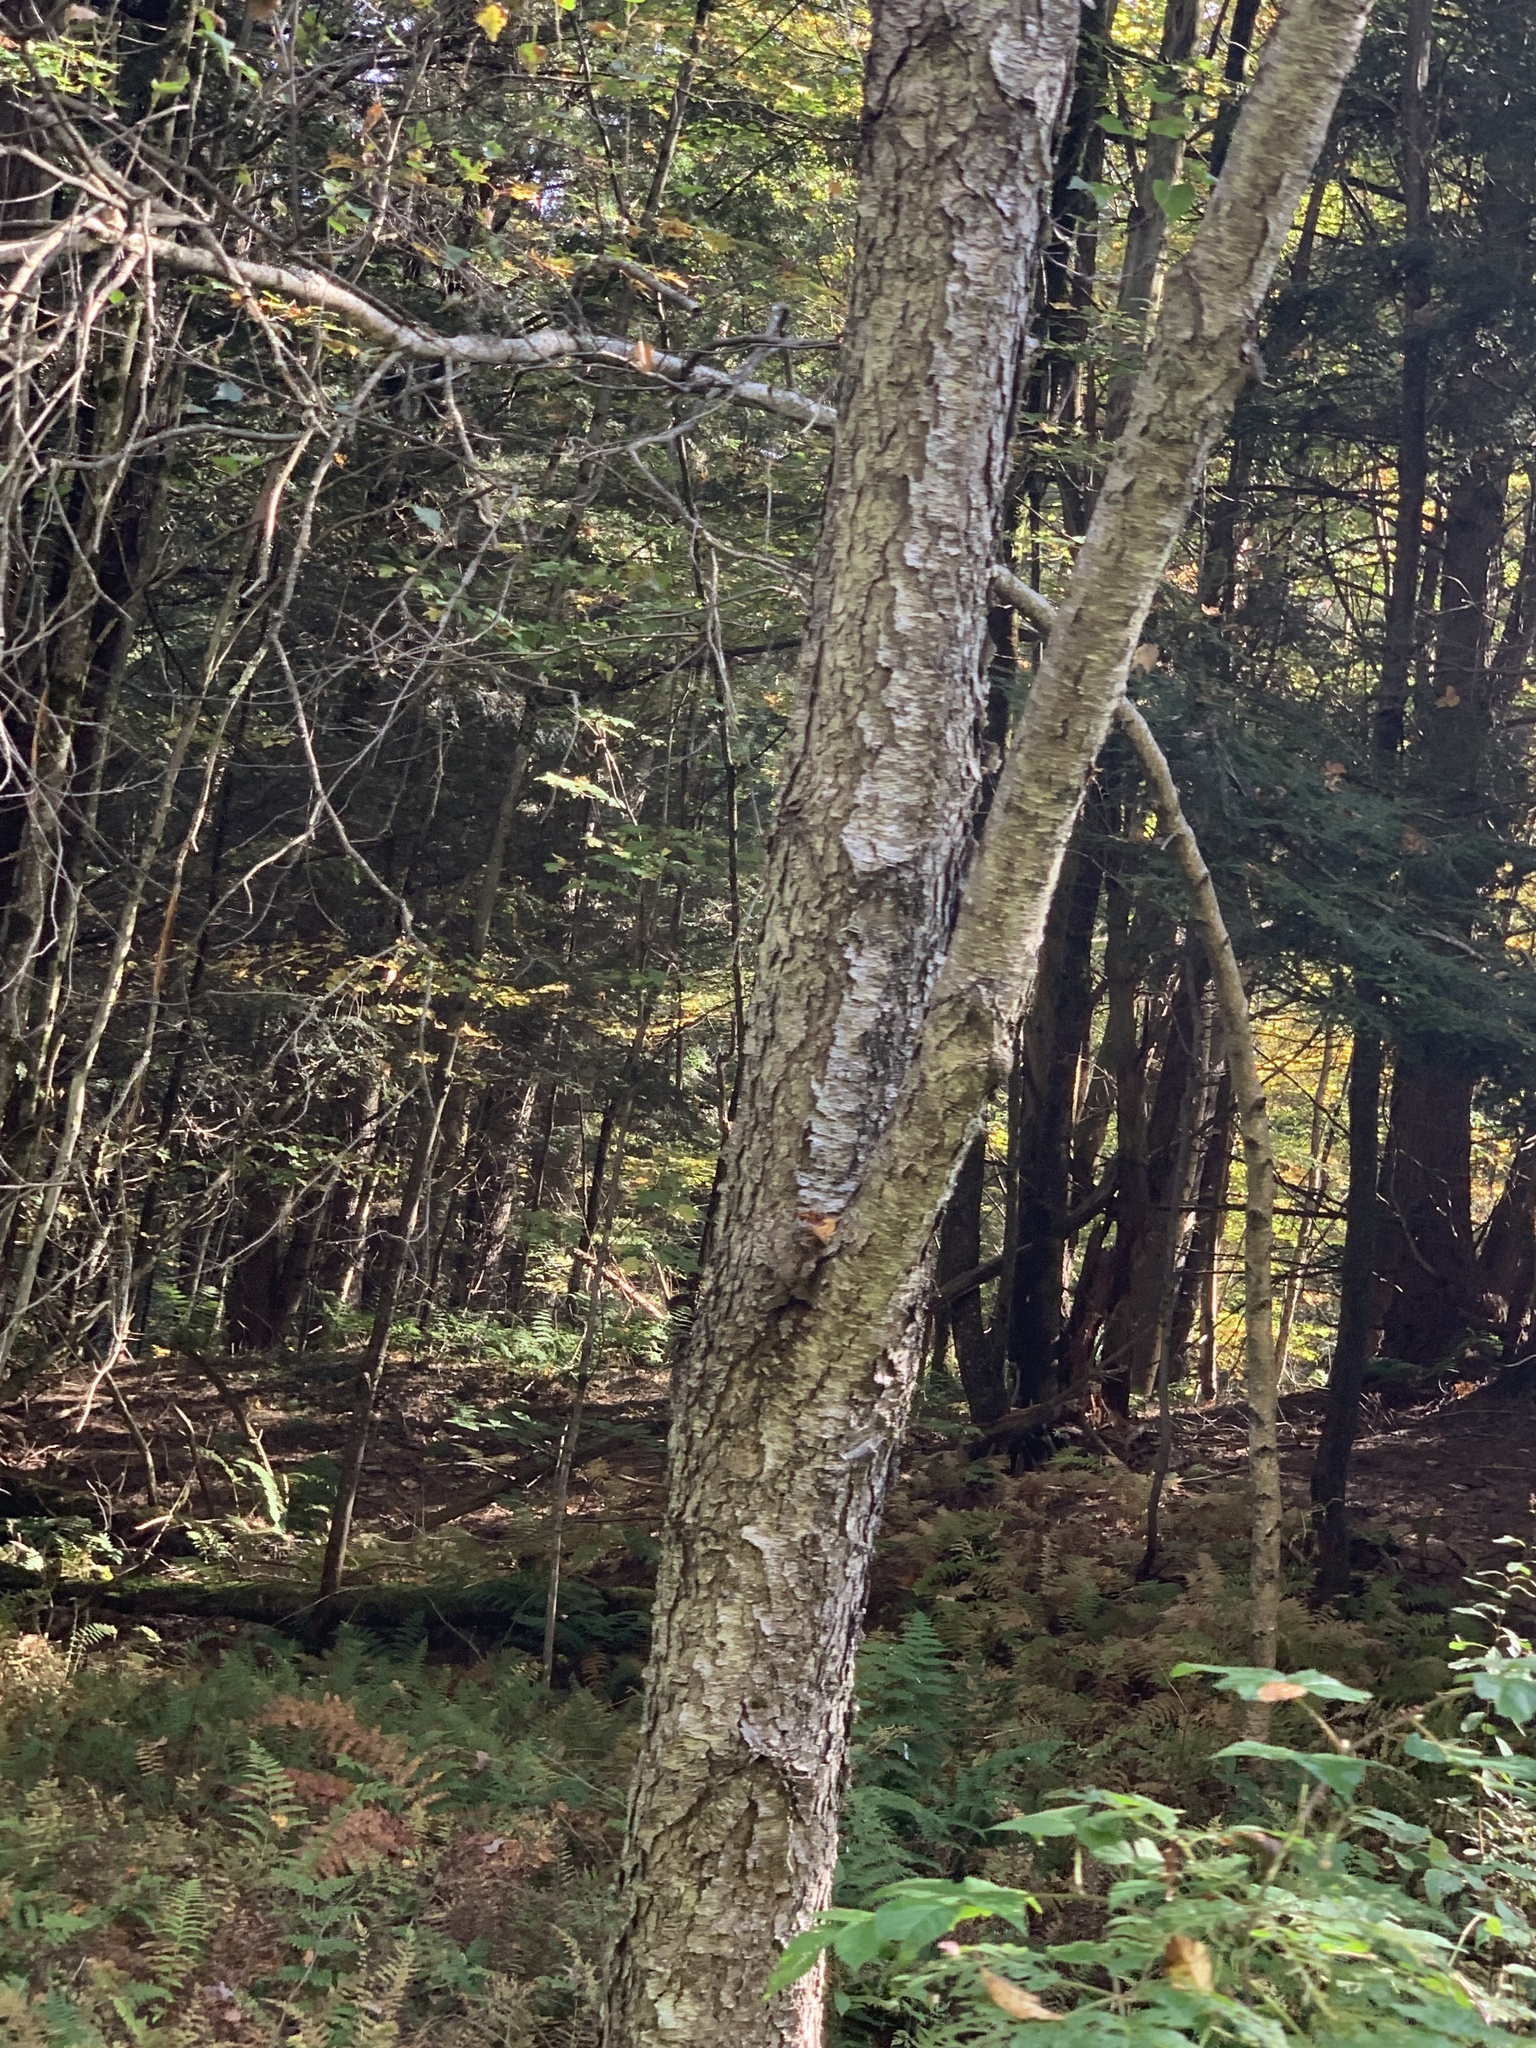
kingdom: Plantae
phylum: Tracheophyta
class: Magnoliopsida
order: Rosales
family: Rosaceae
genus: Prunus
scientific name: Prunus serotina
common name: Black cherry
